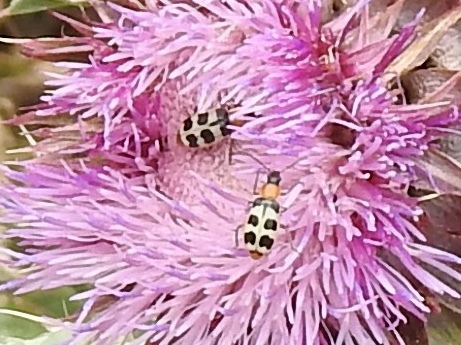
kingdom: Animalia
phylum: Arthropoda
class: Insecta
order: Coleoptera
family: Chrysomelidae
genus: Paranapiacaba
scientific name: Paranapiacaba tricincta
